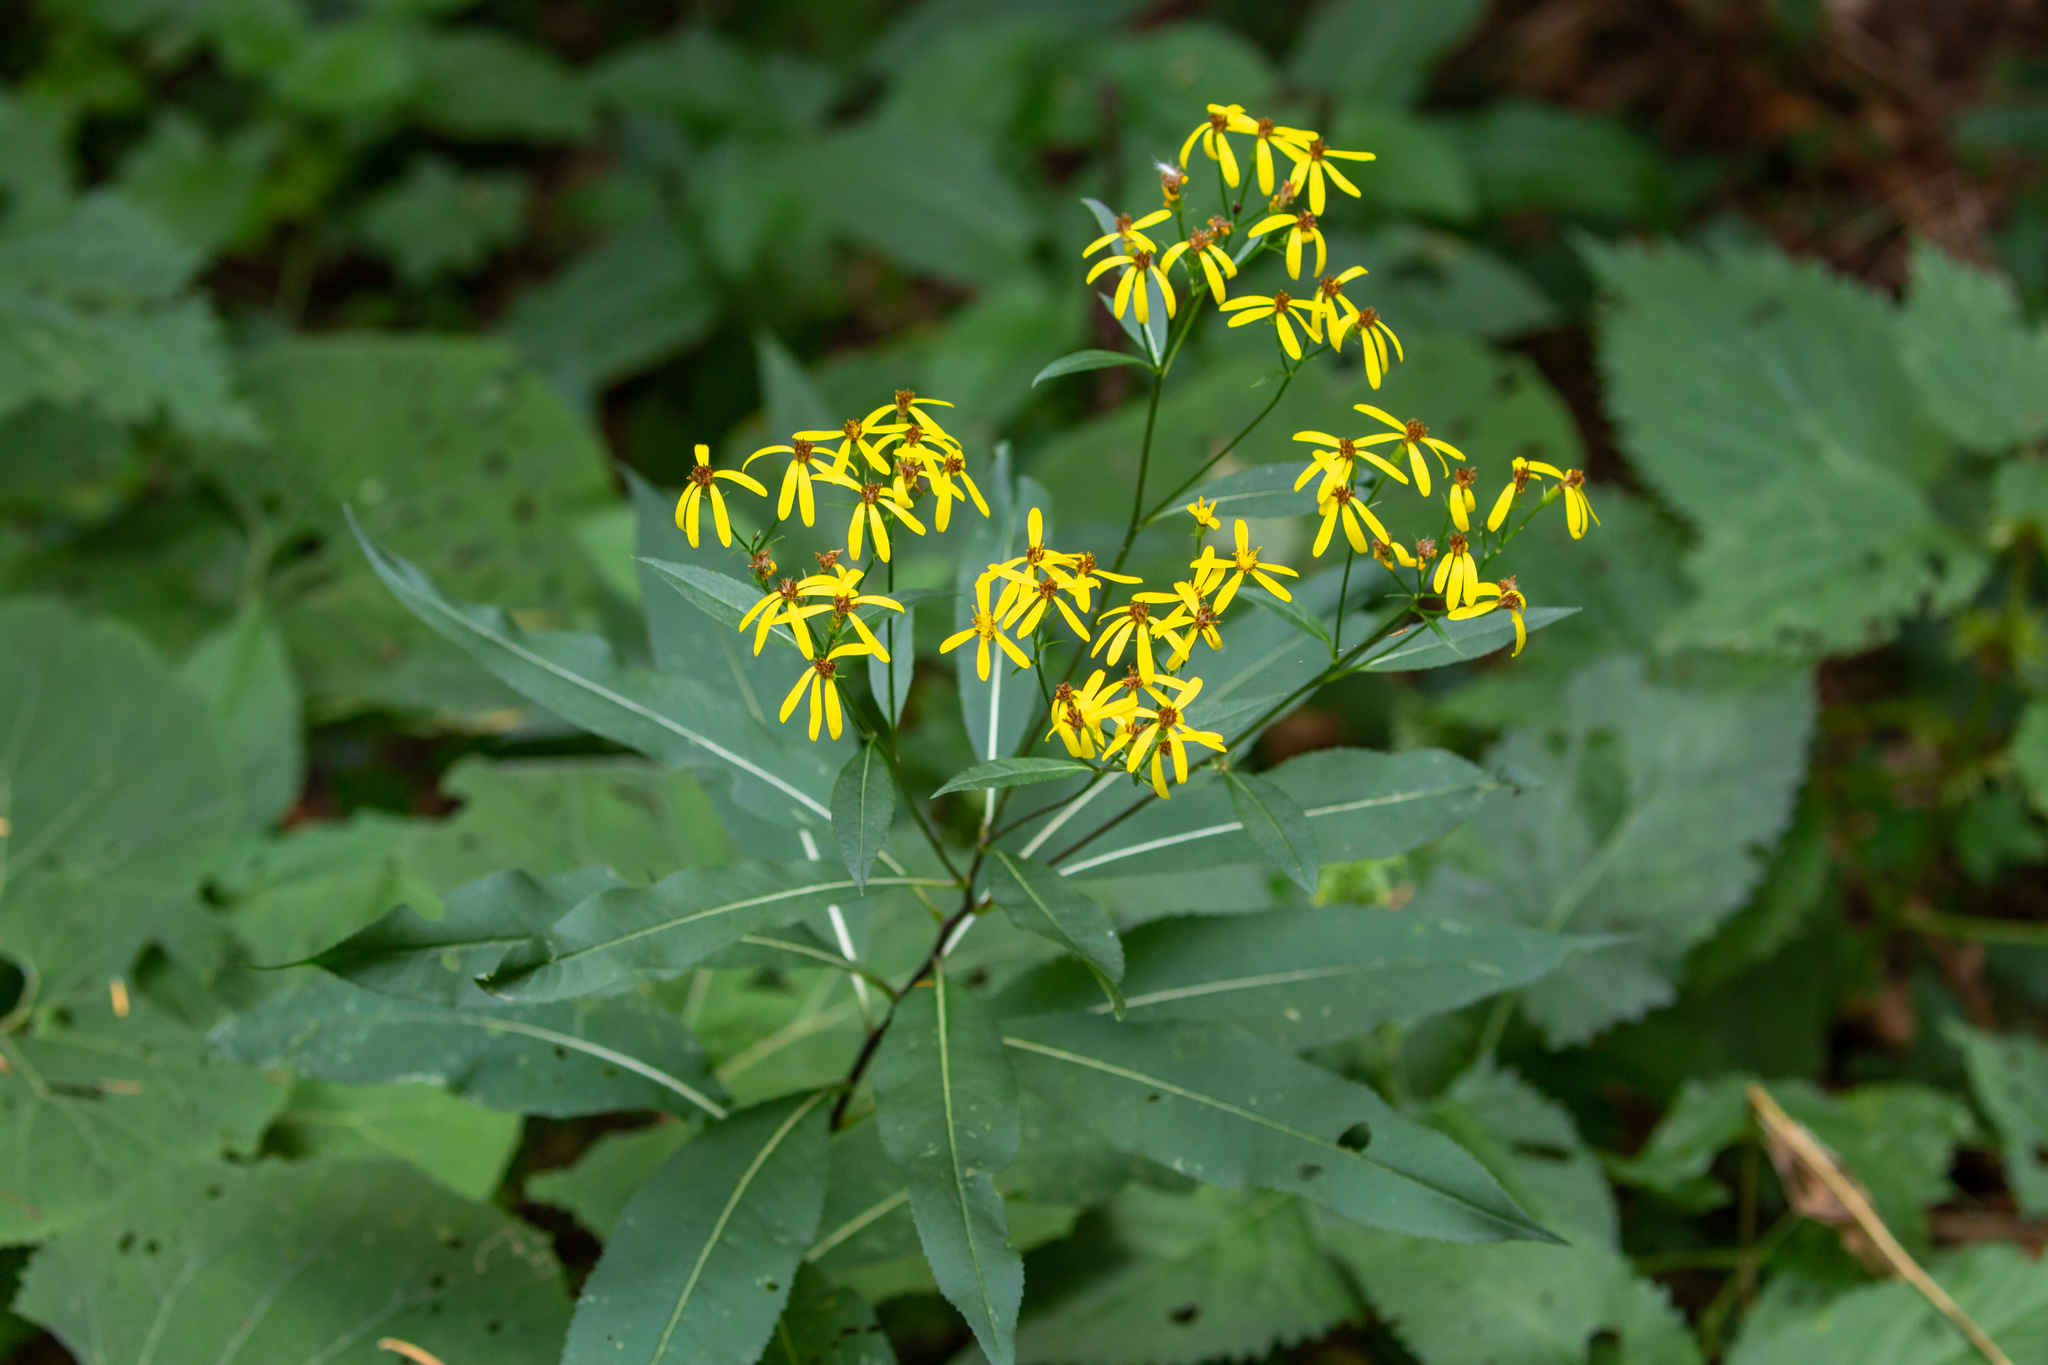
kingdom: Plantae
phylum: Tracheophyta
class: Magnoliopsida
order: Asterales
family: Asteraceae
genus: Senecio
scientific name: Senecio ovatus
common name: Wood ragwort
